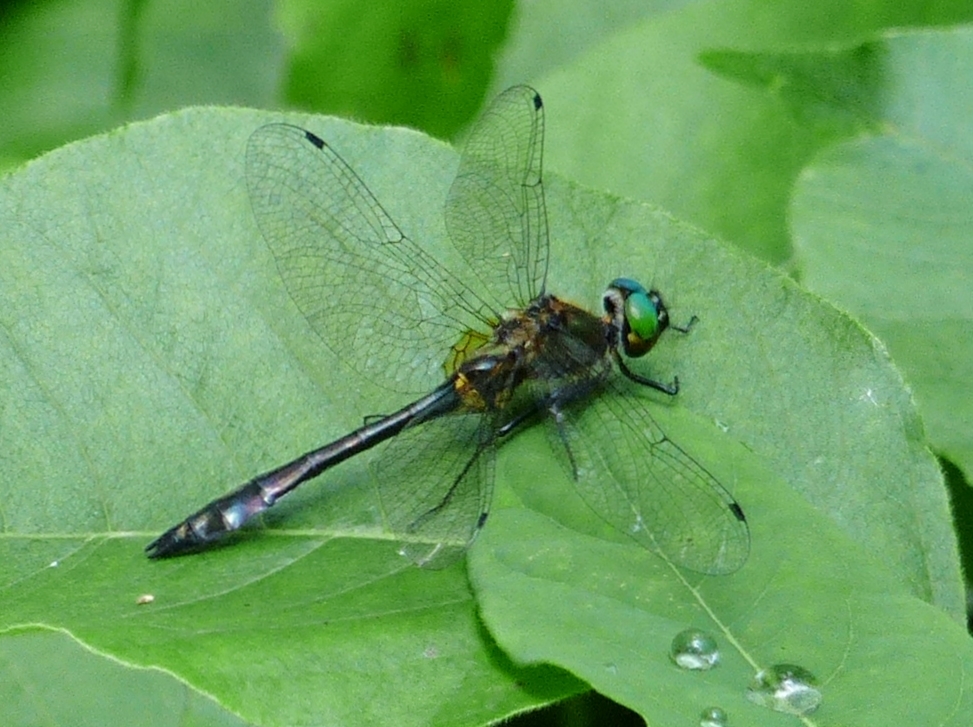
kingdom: Animalia
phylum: Arthropoda
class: Insecta
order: Odonata
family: Corduliidae
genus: Dorocordulia
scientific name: Dorocordulia libera
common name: Racket-tailed emerald
